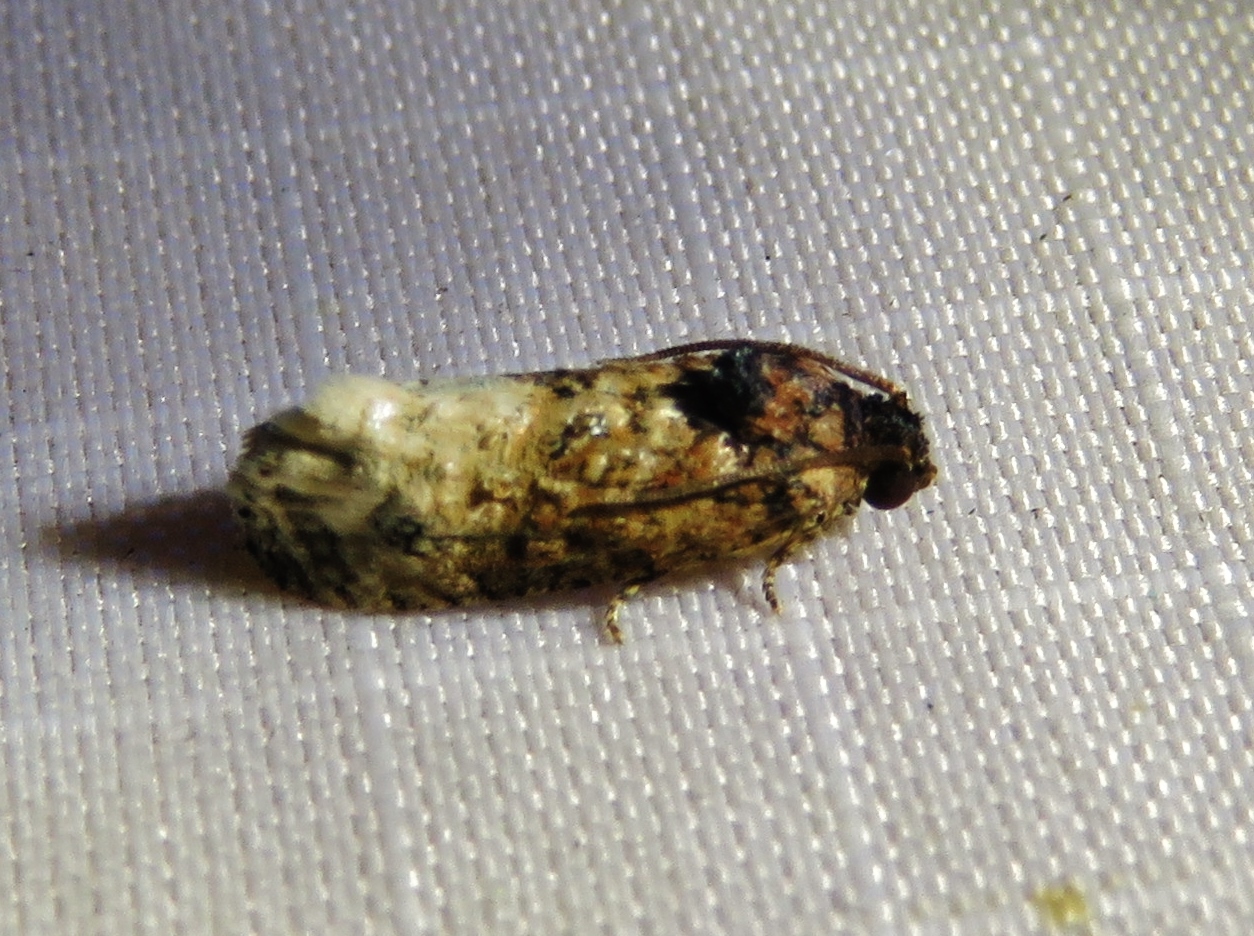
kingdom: Animalia
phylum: Arthropoda
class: Insecta
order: Lepidoptera
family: Tortricidae
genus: Ecdytolopha
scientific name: Ecdytolopha mana
